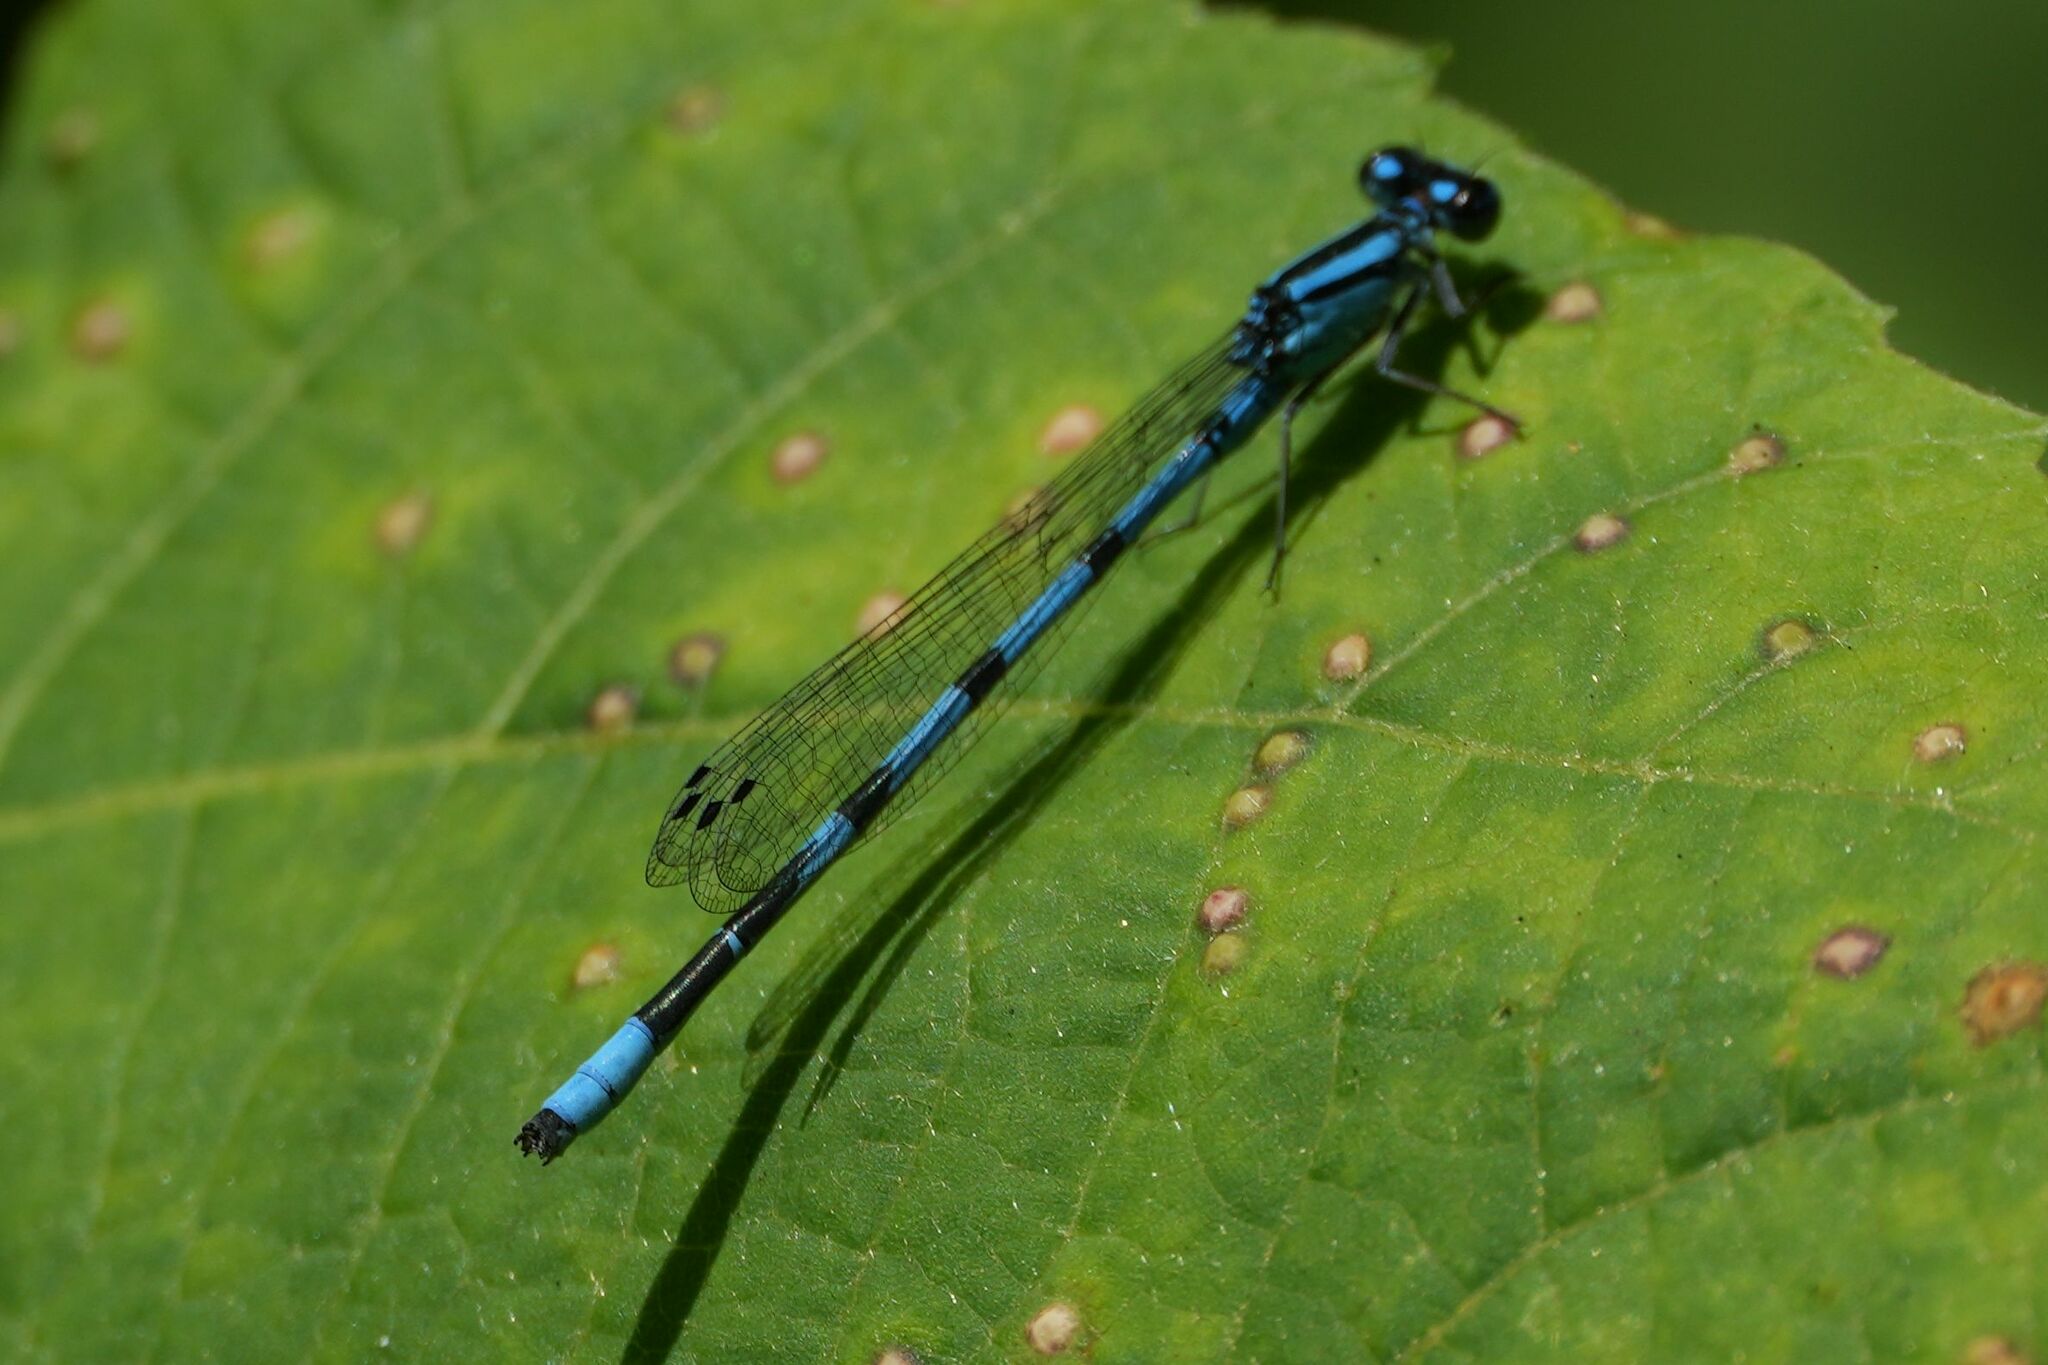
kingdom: Animalia
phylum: Arthropoda
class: Insecta
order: Odonata
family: Coenagrionidae
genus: Enallagma
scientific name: Enallagma ebrium
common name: Marsh bluet
